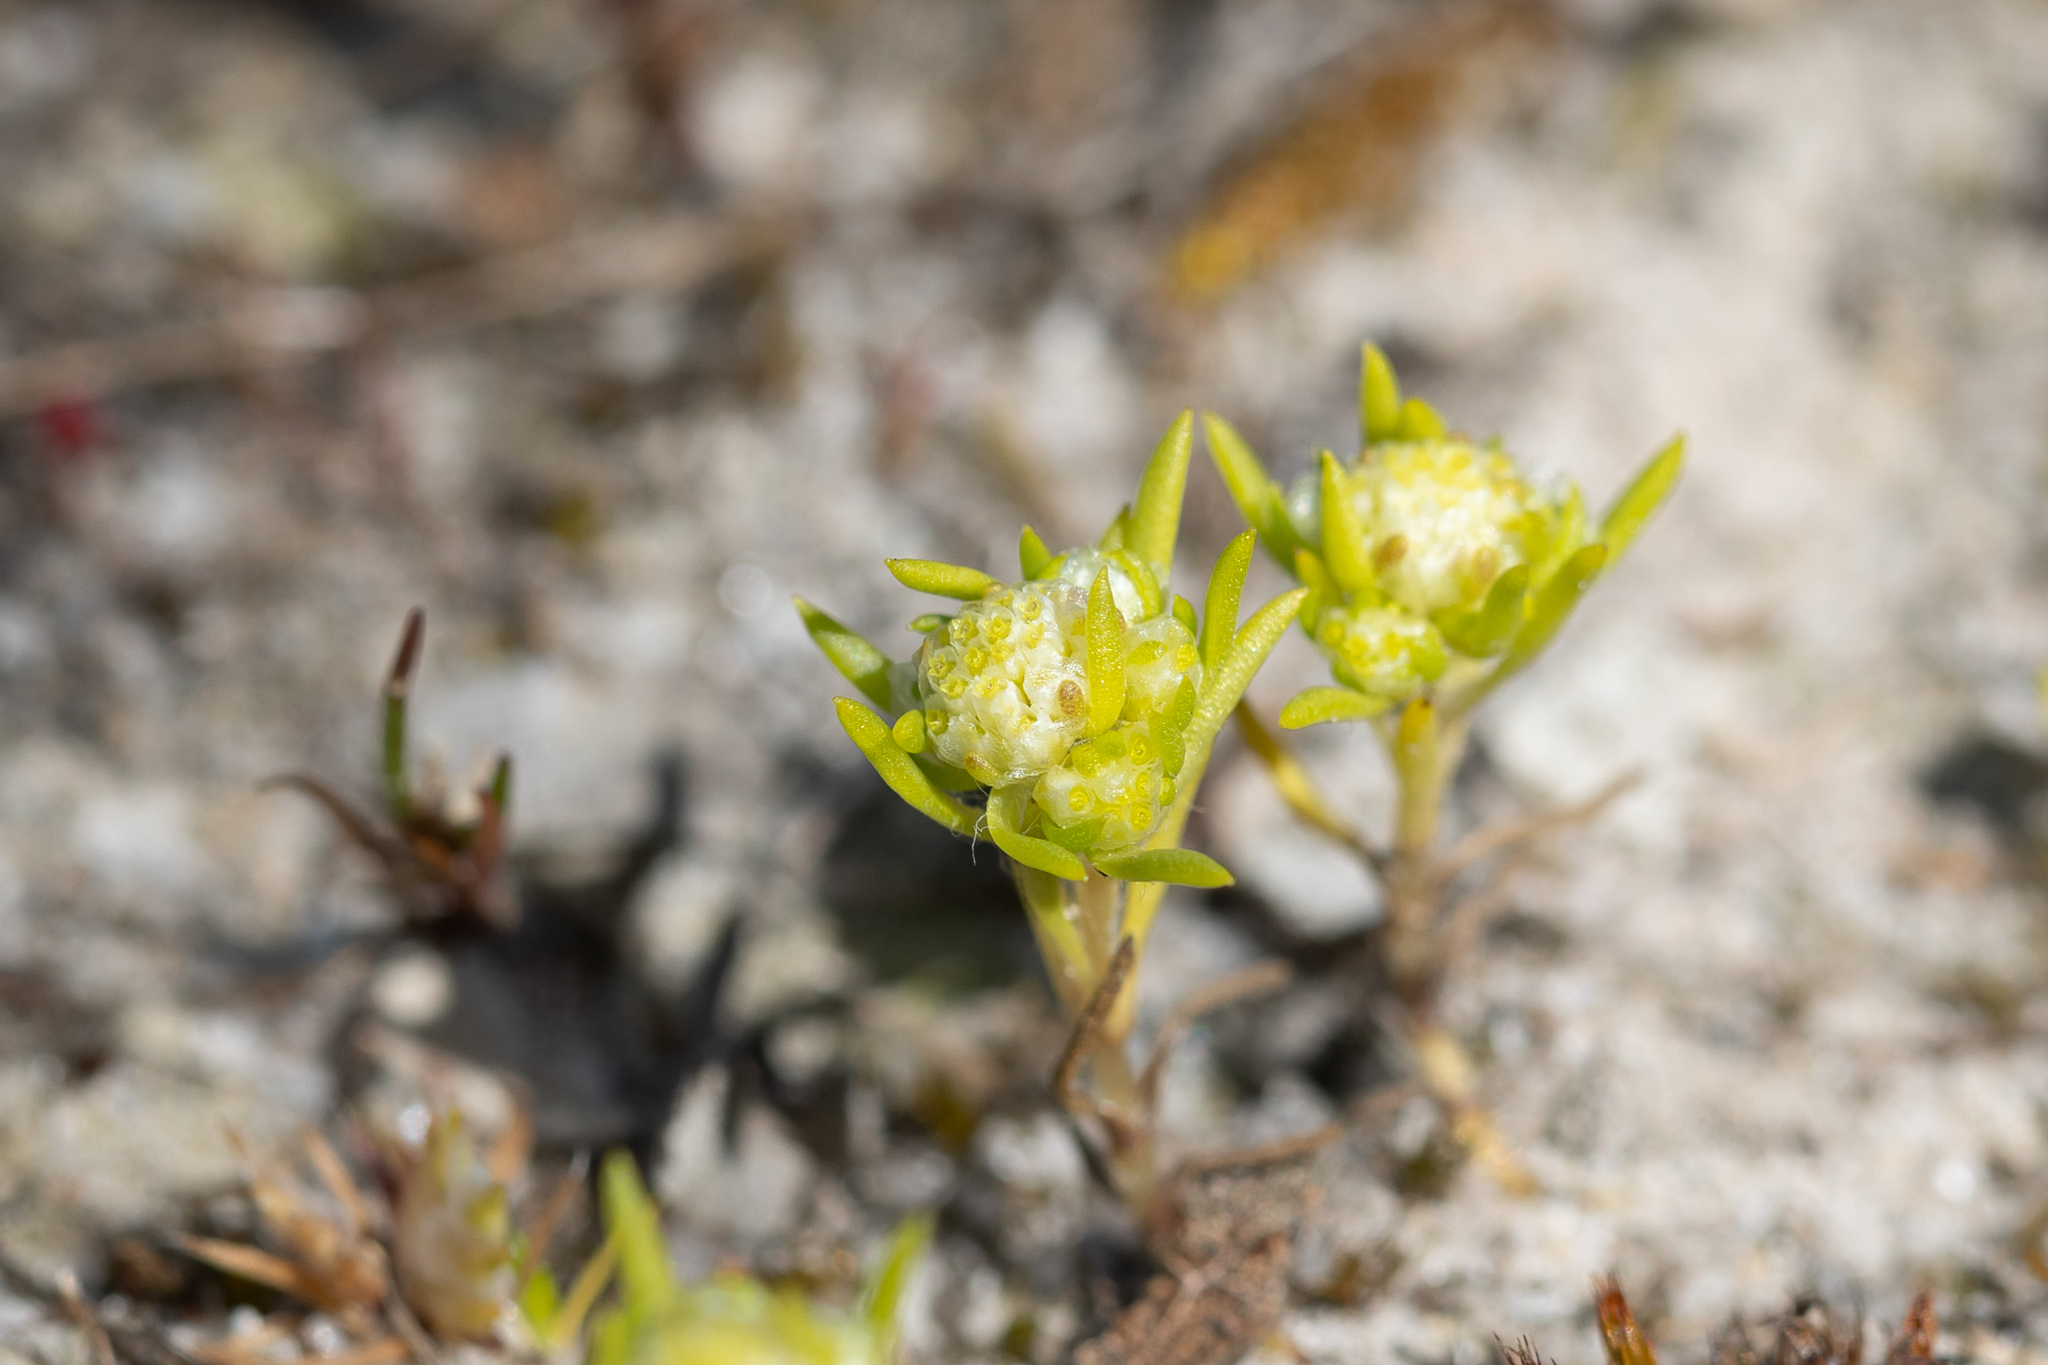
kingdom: Plantae
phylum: Tracheophyta
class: Magnoliopsida
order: Asterales
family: Asteraceae
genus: Siloxerus
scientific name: Siloxerus multiflorus
